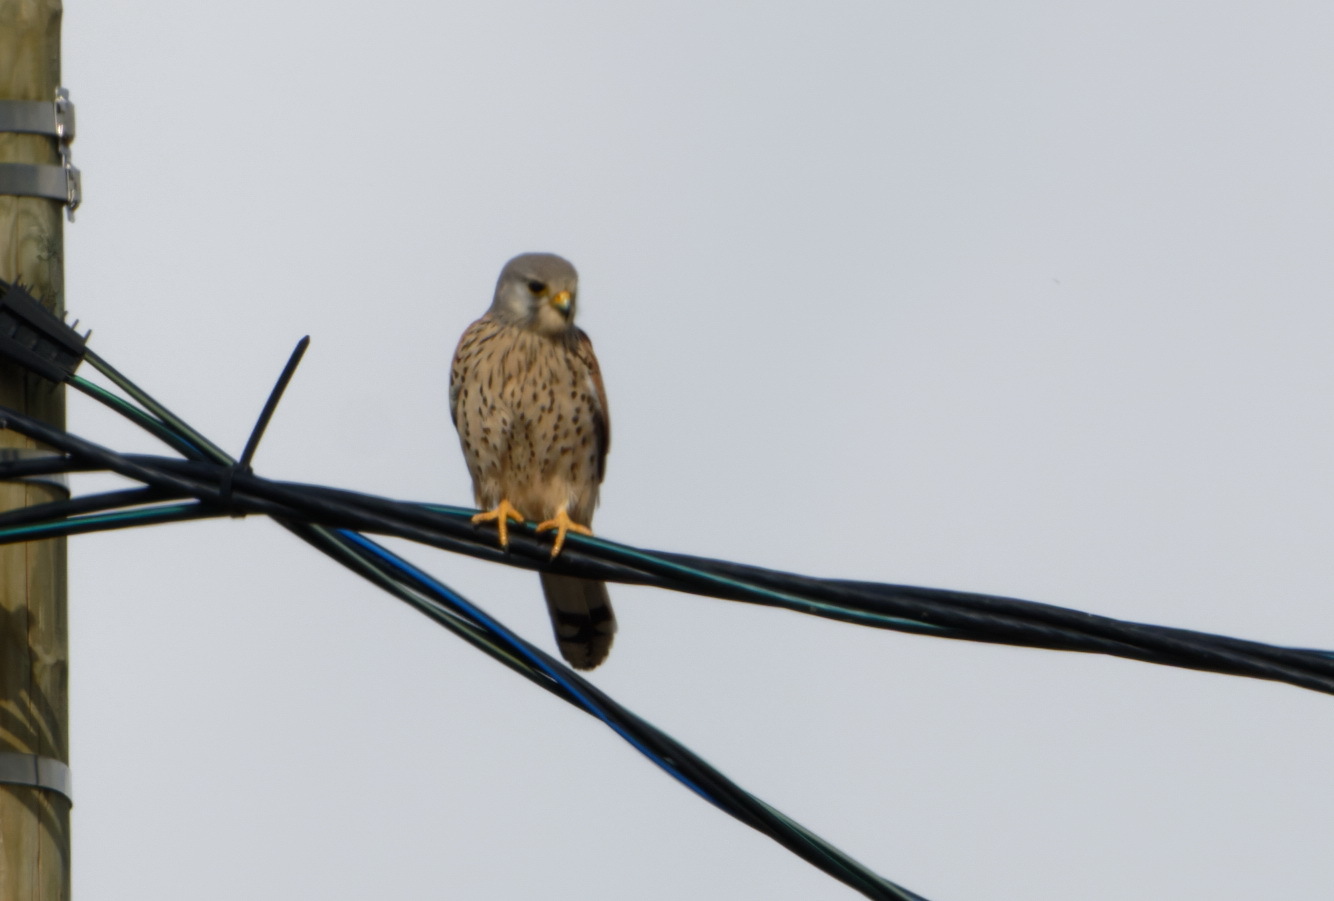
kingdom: Animalia
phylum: Chordata
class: Aves
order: Falconiformes
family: Falconidae
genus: Falco
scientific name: Falco tinnunculus
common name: Common kestrel
